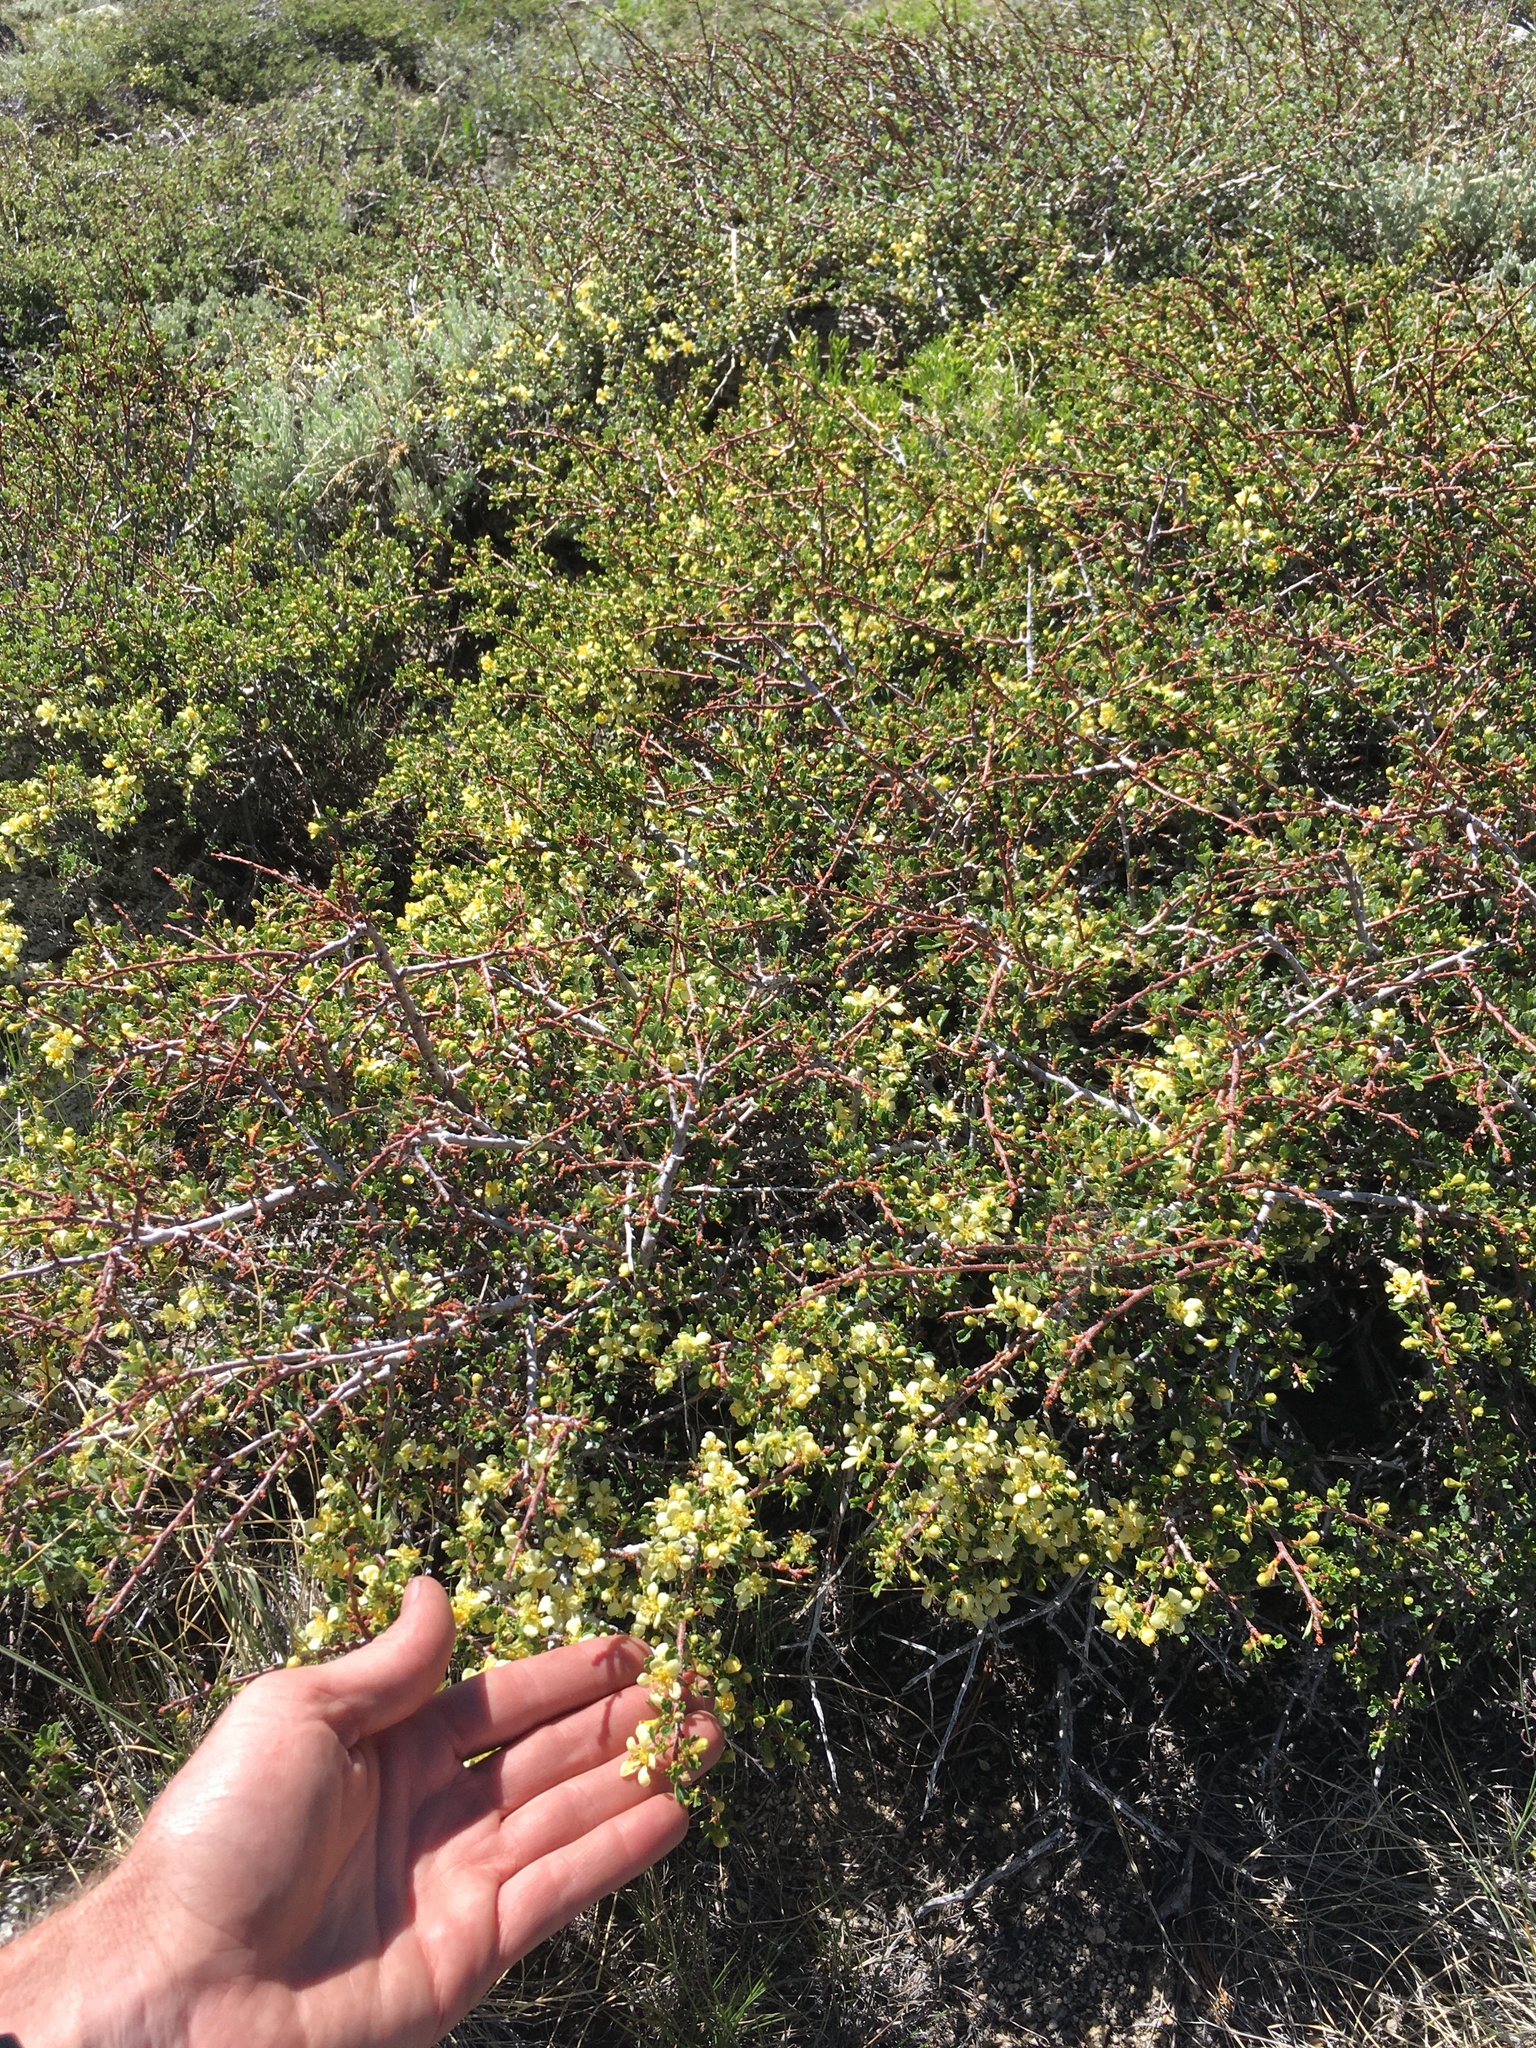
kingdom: Plantae
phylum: Tracheophyta
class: Magnoliopsida
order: Rosales
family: Rosaceae
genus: Purshia
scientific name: Purshia tridentata
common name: Antelope bitterbrush
